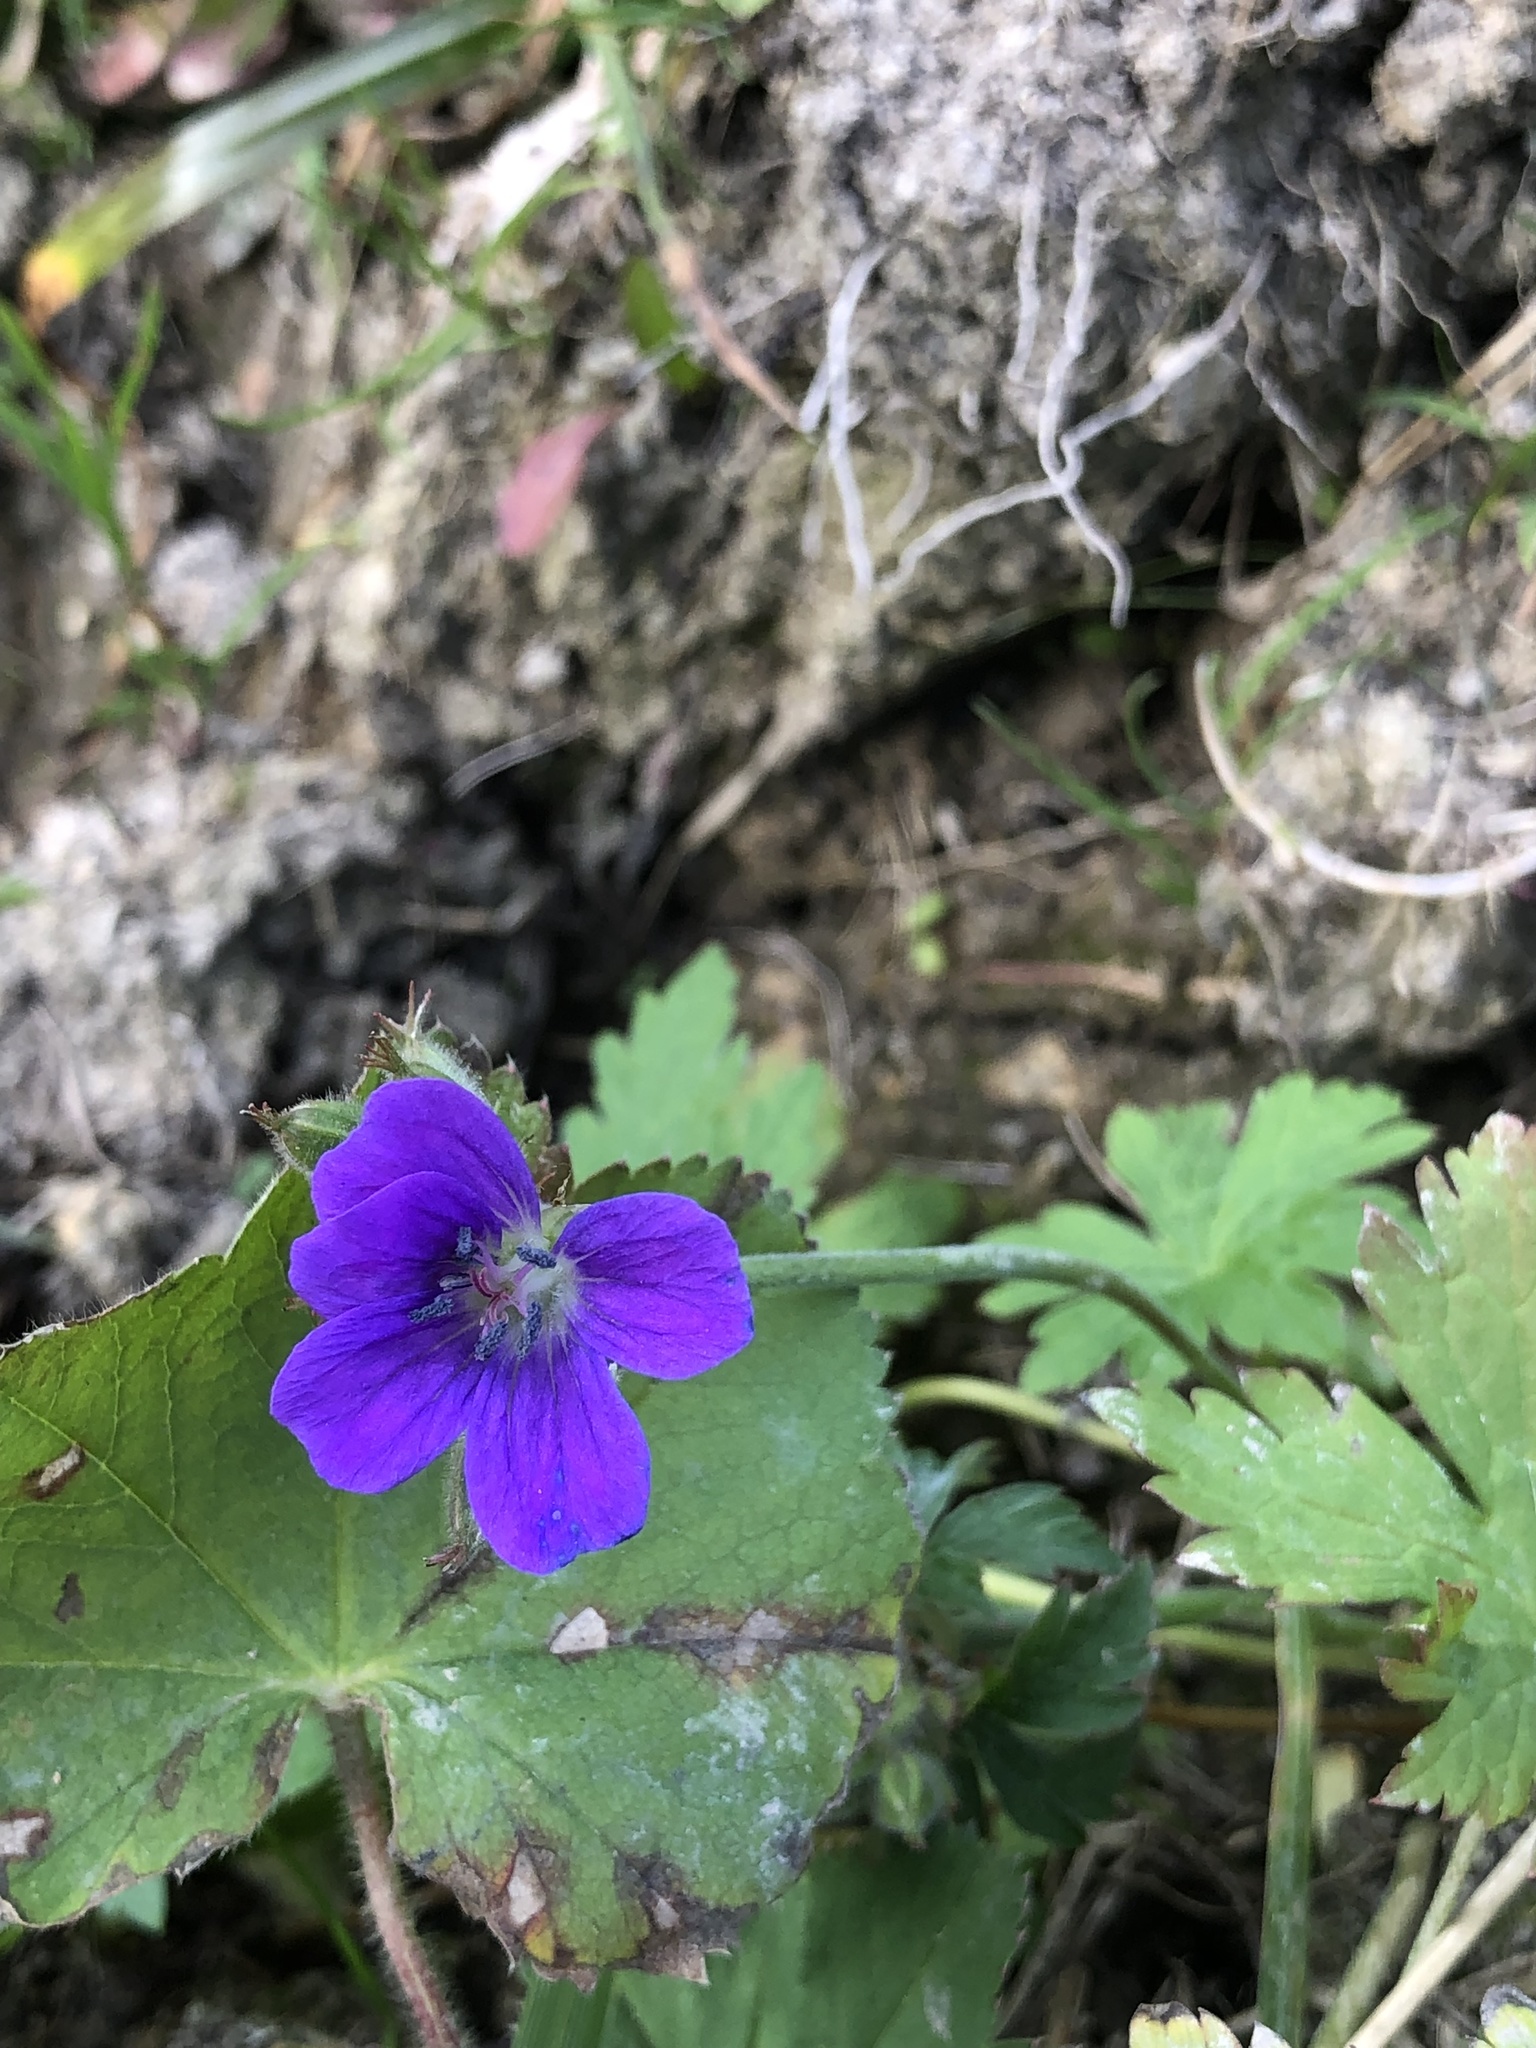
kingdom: Plantae
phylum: Tracheophyta
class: Magnoliopsida
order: Geraniales
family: Geraniaceae
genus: Geranium
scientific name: Geranium sylvaticum
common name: Wood crane's-bill
